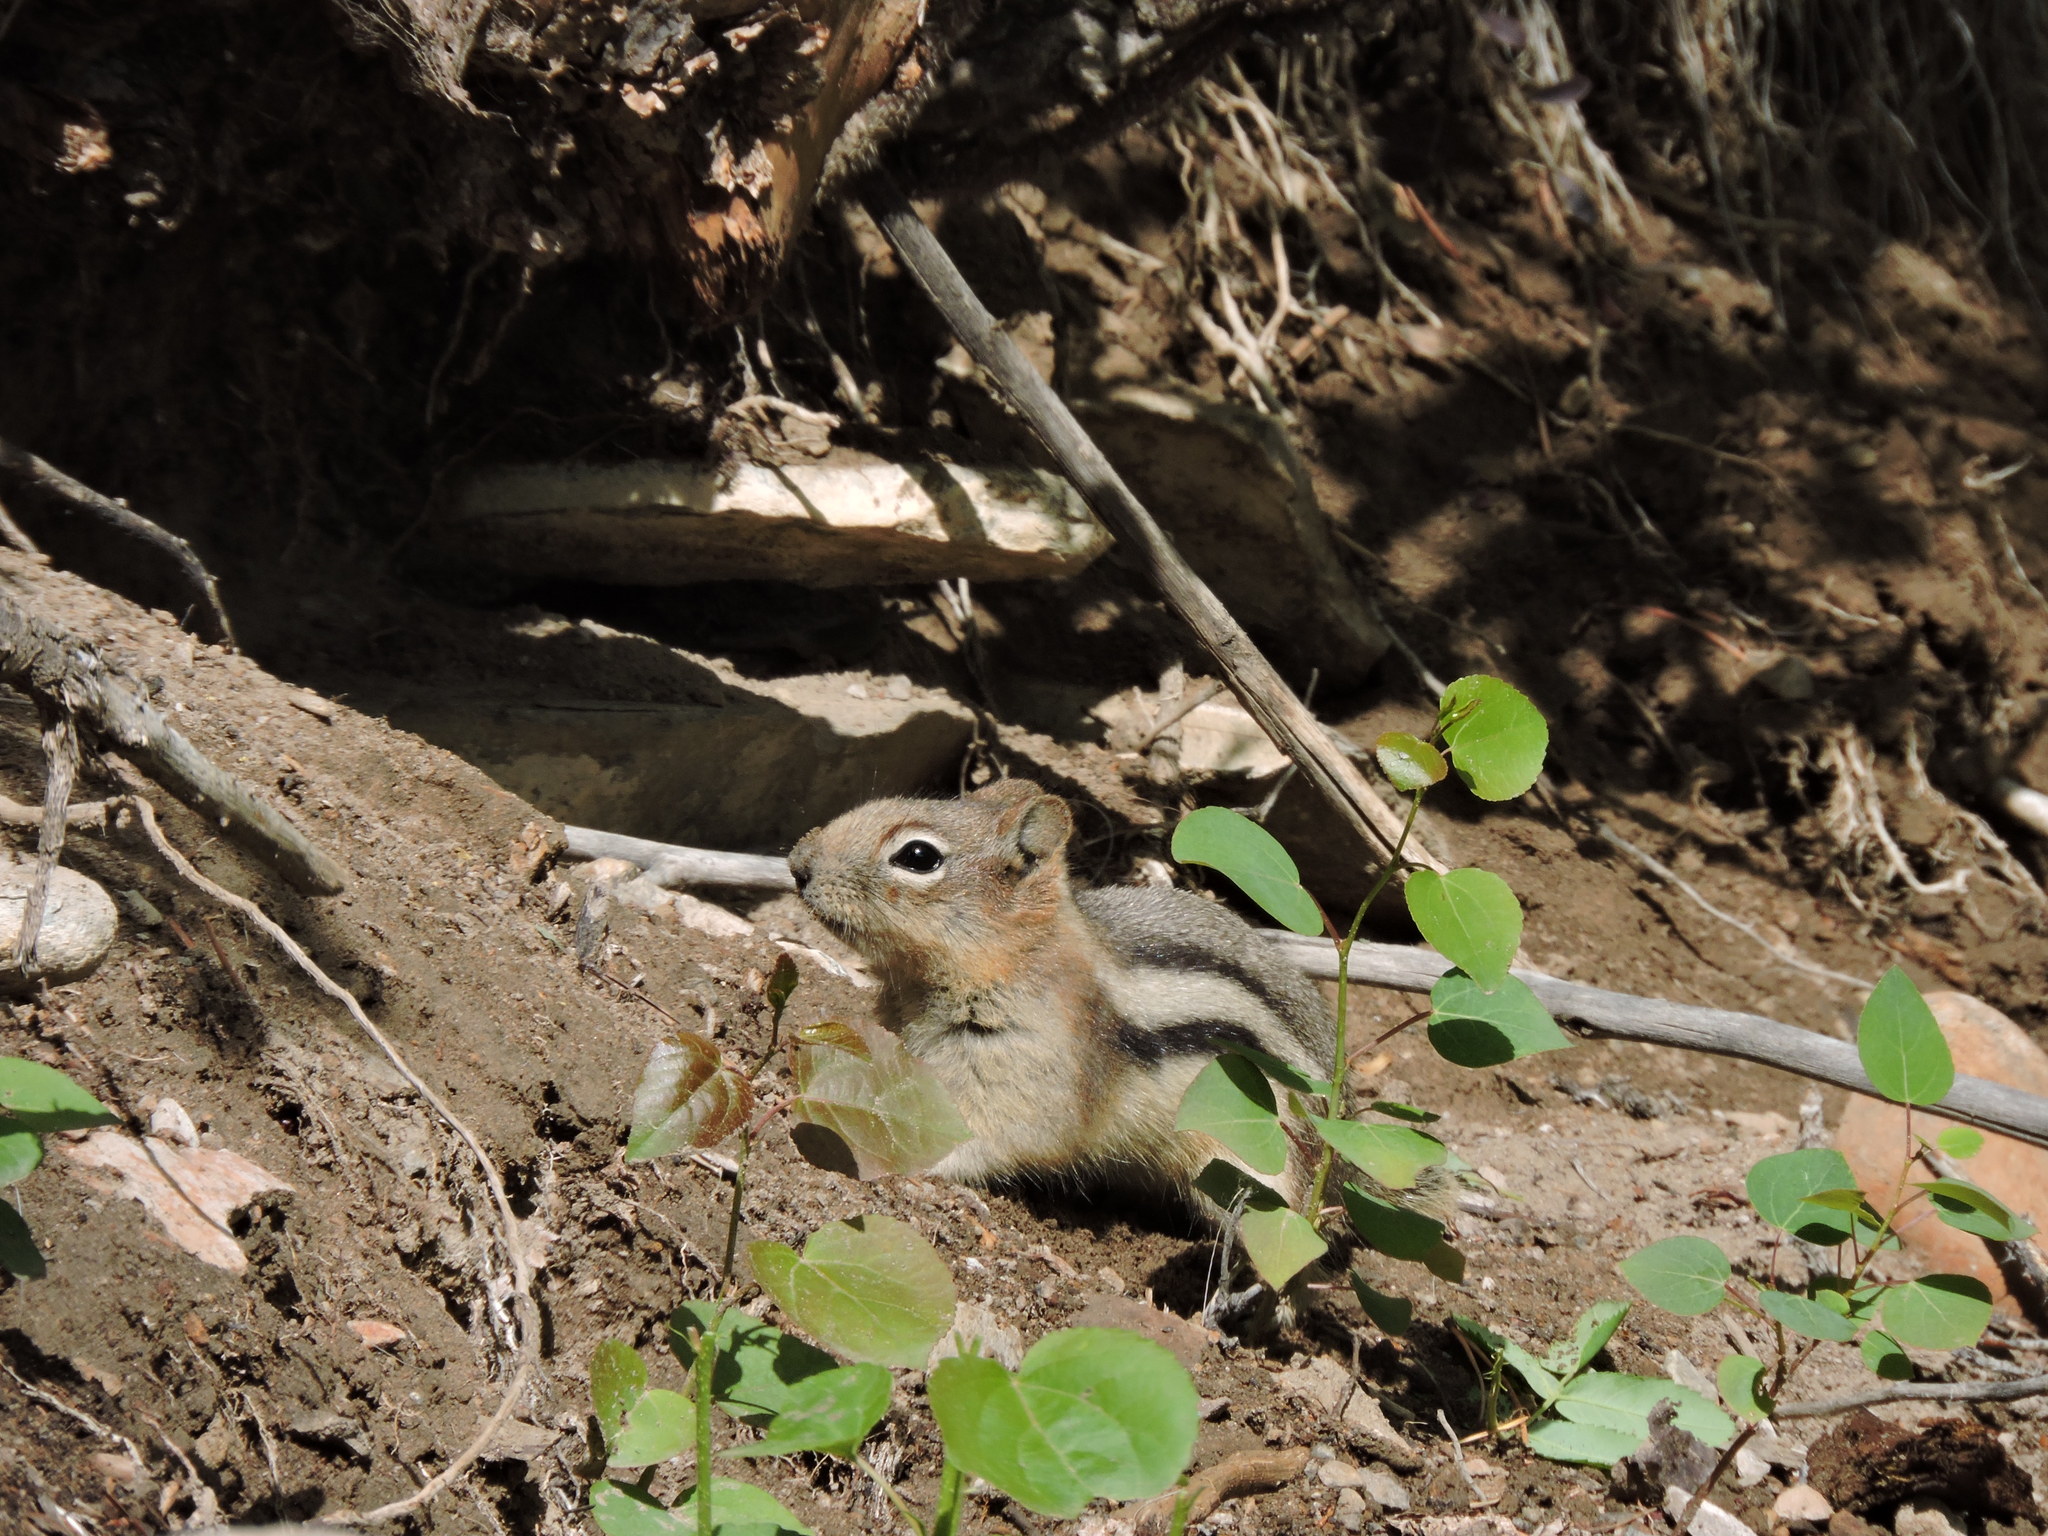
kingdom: Animalia
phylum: Chordata
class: Mammalia
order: Rodentia
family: Sciuridae
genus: Callospermophilus
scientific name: Callospermophilus lateralis
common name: Golden-mantled ground squirrel
